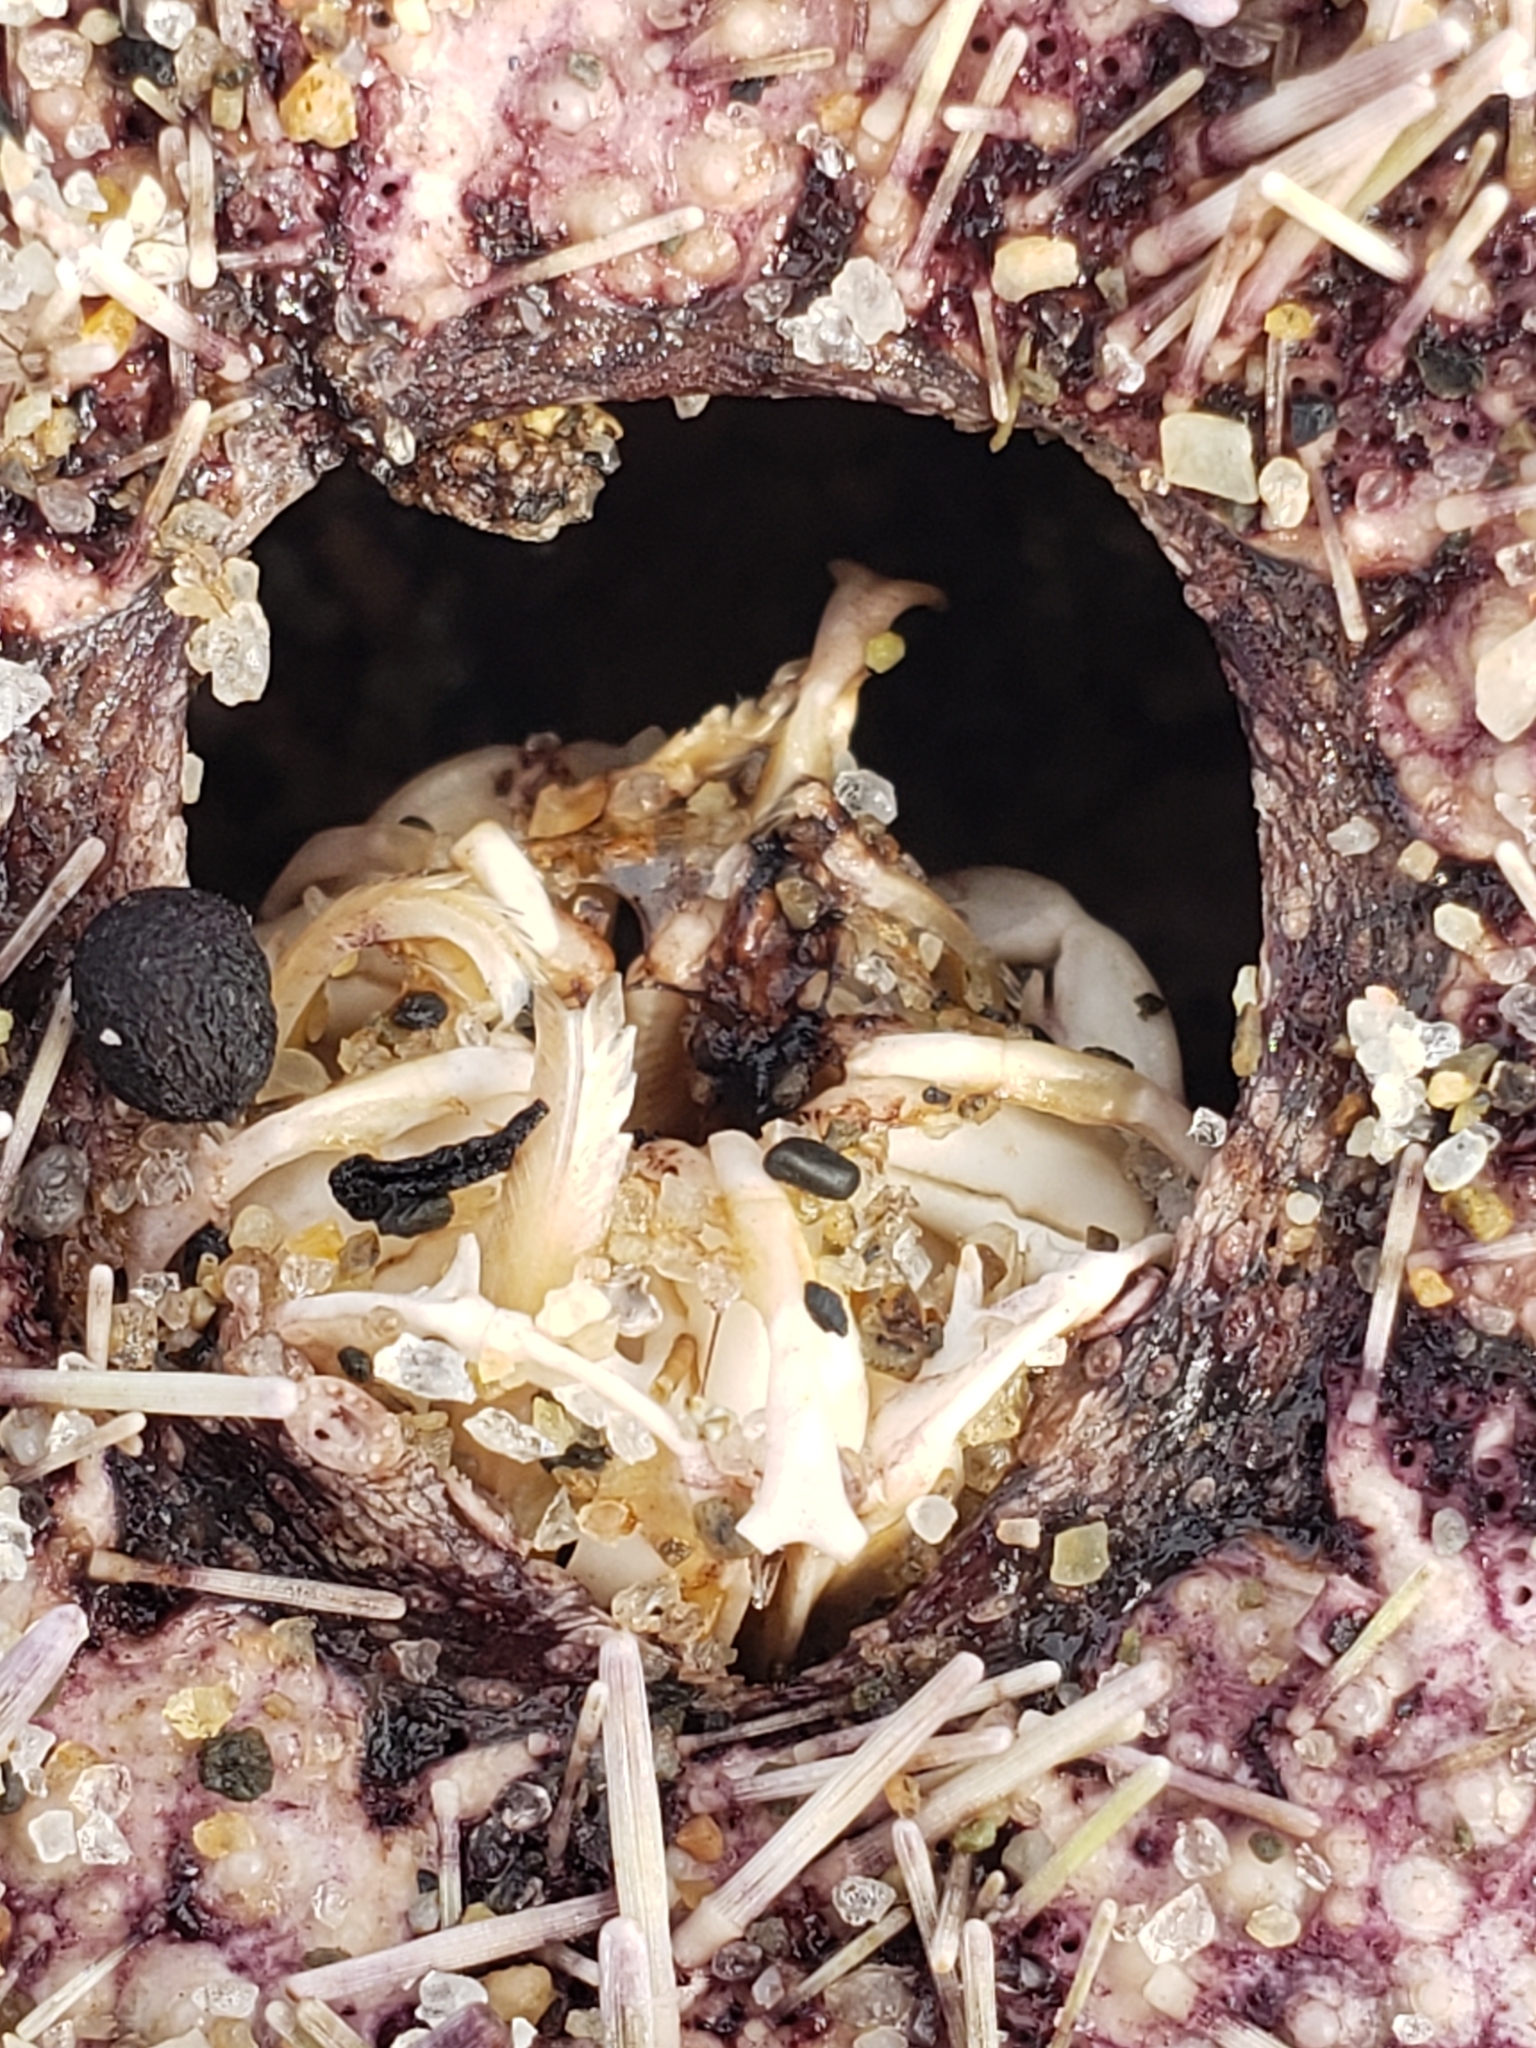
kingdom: Animalia
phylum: Echinodermata
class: Echinoidea
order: Camarodonta
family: Strongylocentrotidae
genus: Strongylocentrotus
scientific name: Strongylocentrotus purpuratus
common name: Purple sea urchin
